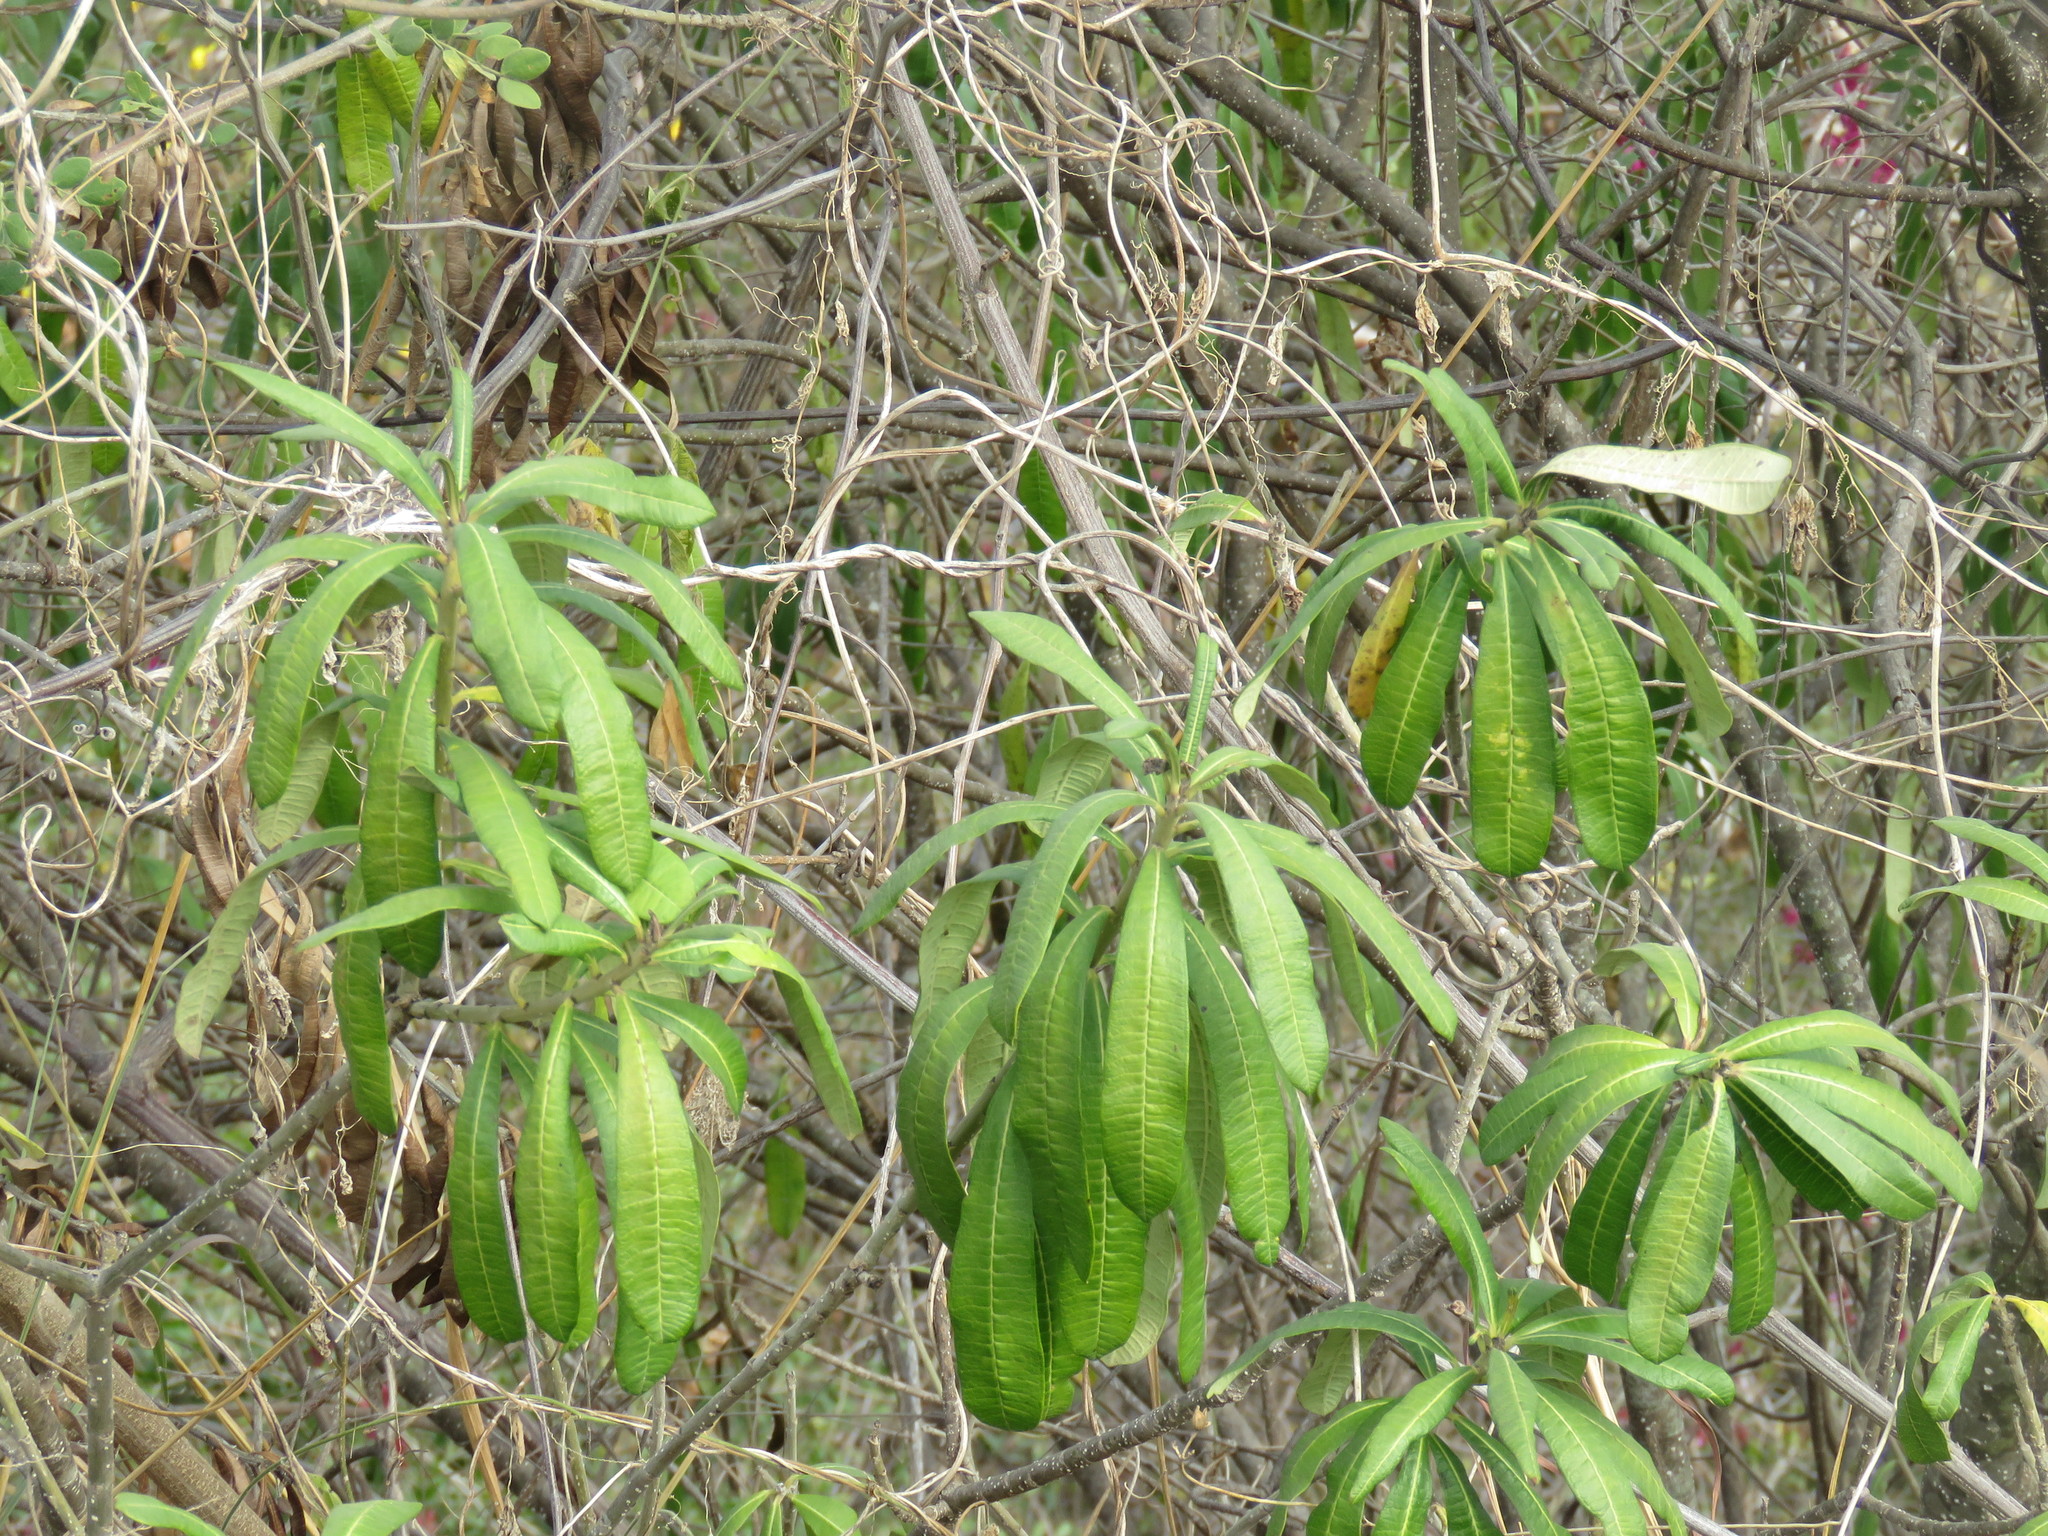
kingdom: Plantae
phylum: Tracheophyta
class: Magnoliopsida
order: Gentianales
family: Apocynaceae
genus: Cascabela
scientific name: Cascabela ovata
